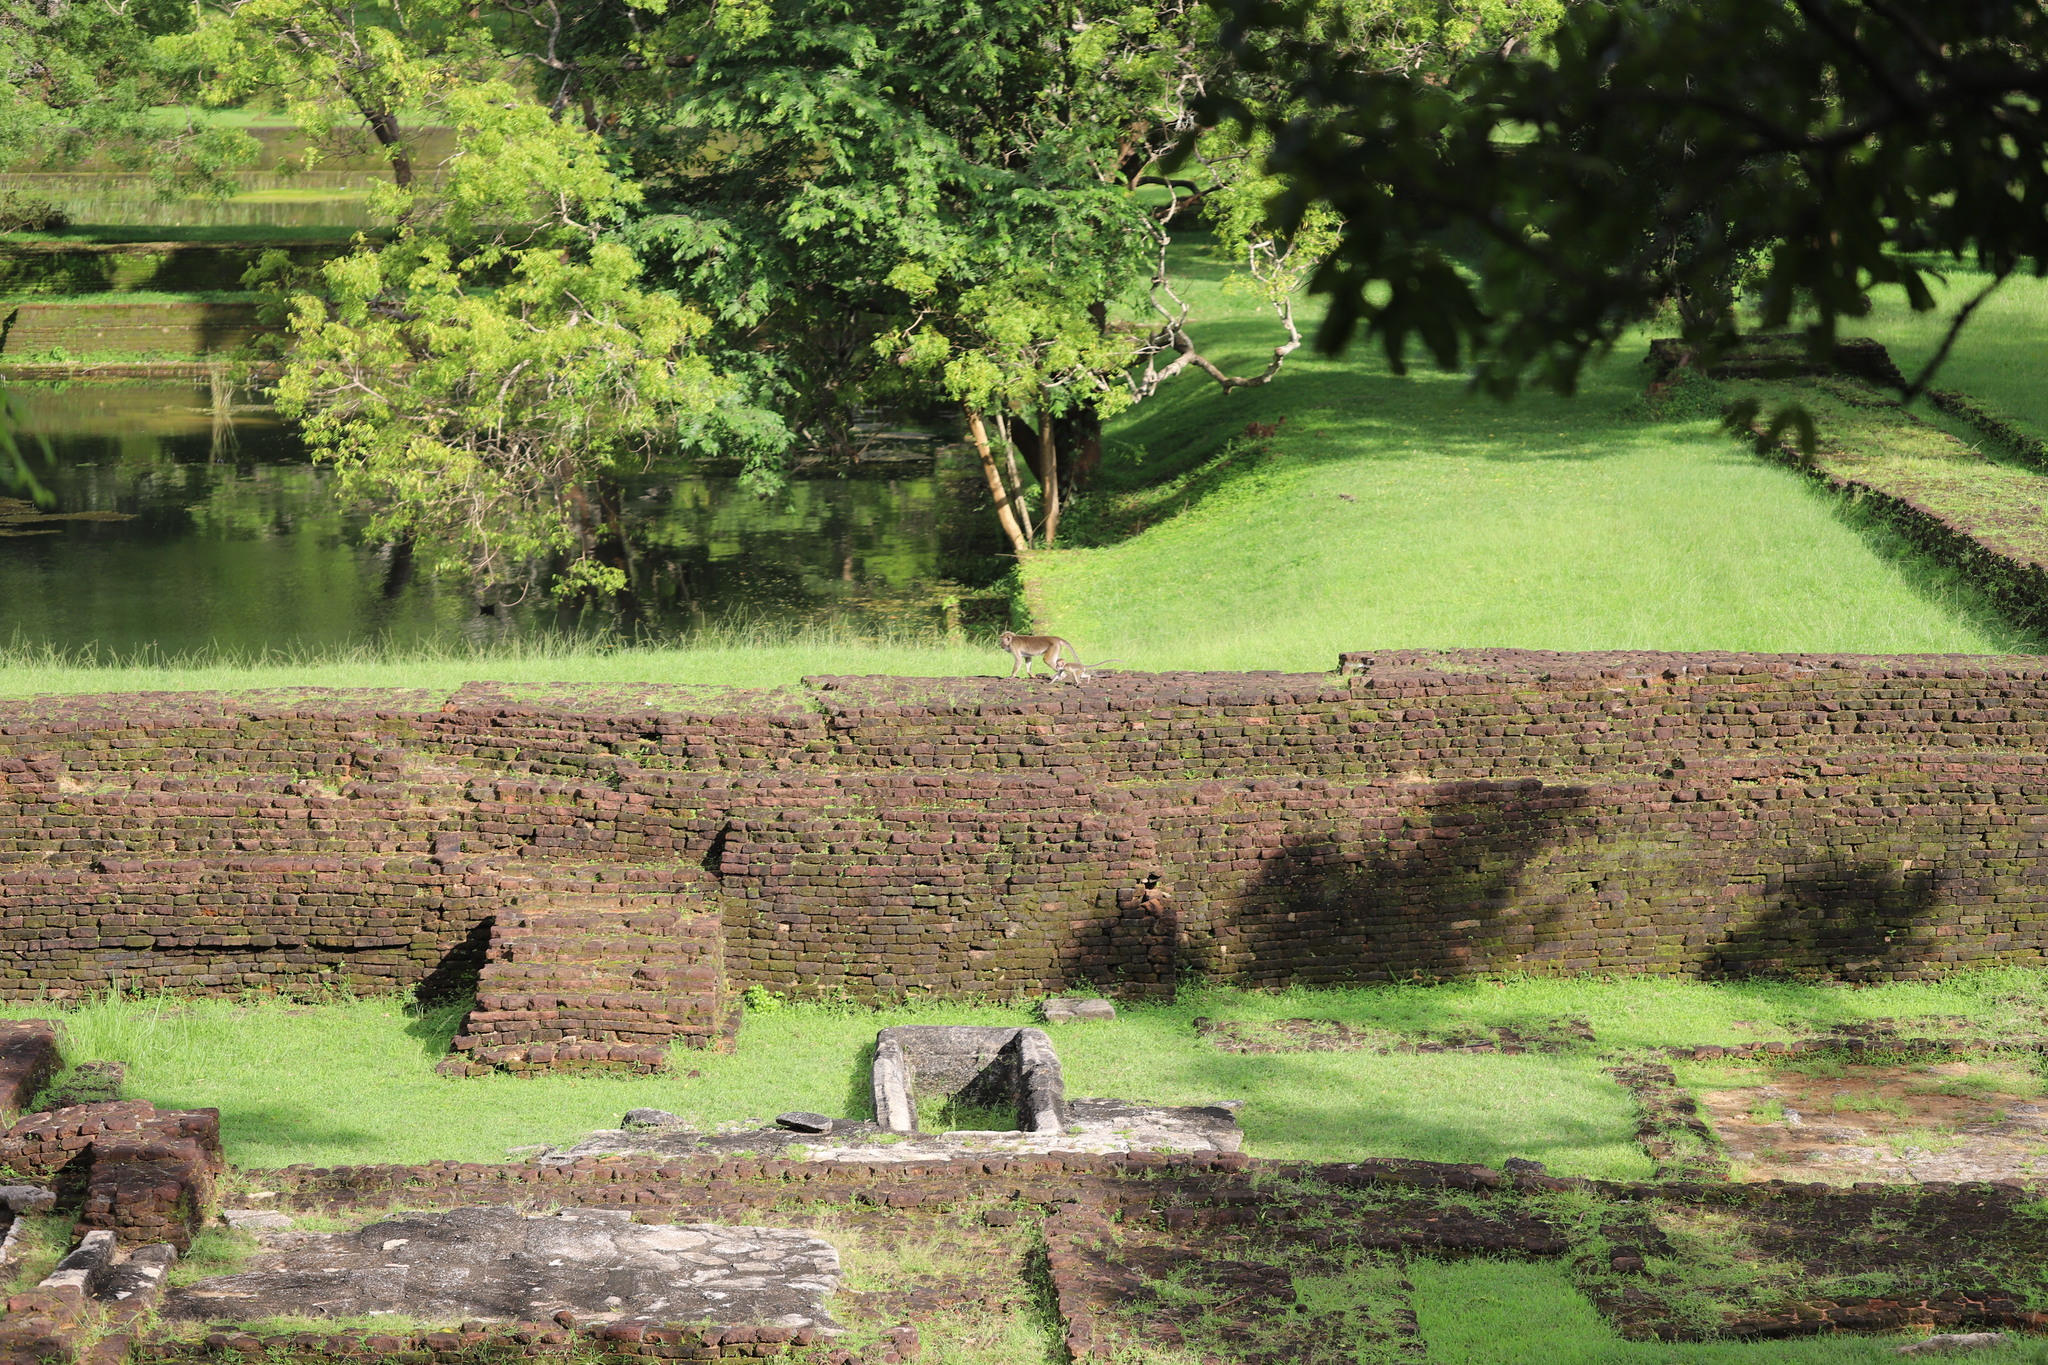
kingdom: Animalia
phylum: Chordata
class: Mammalia
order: Primates
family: Cercopithecidae
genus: Macaca
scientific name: Macaca sinica
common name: Toque macaque
